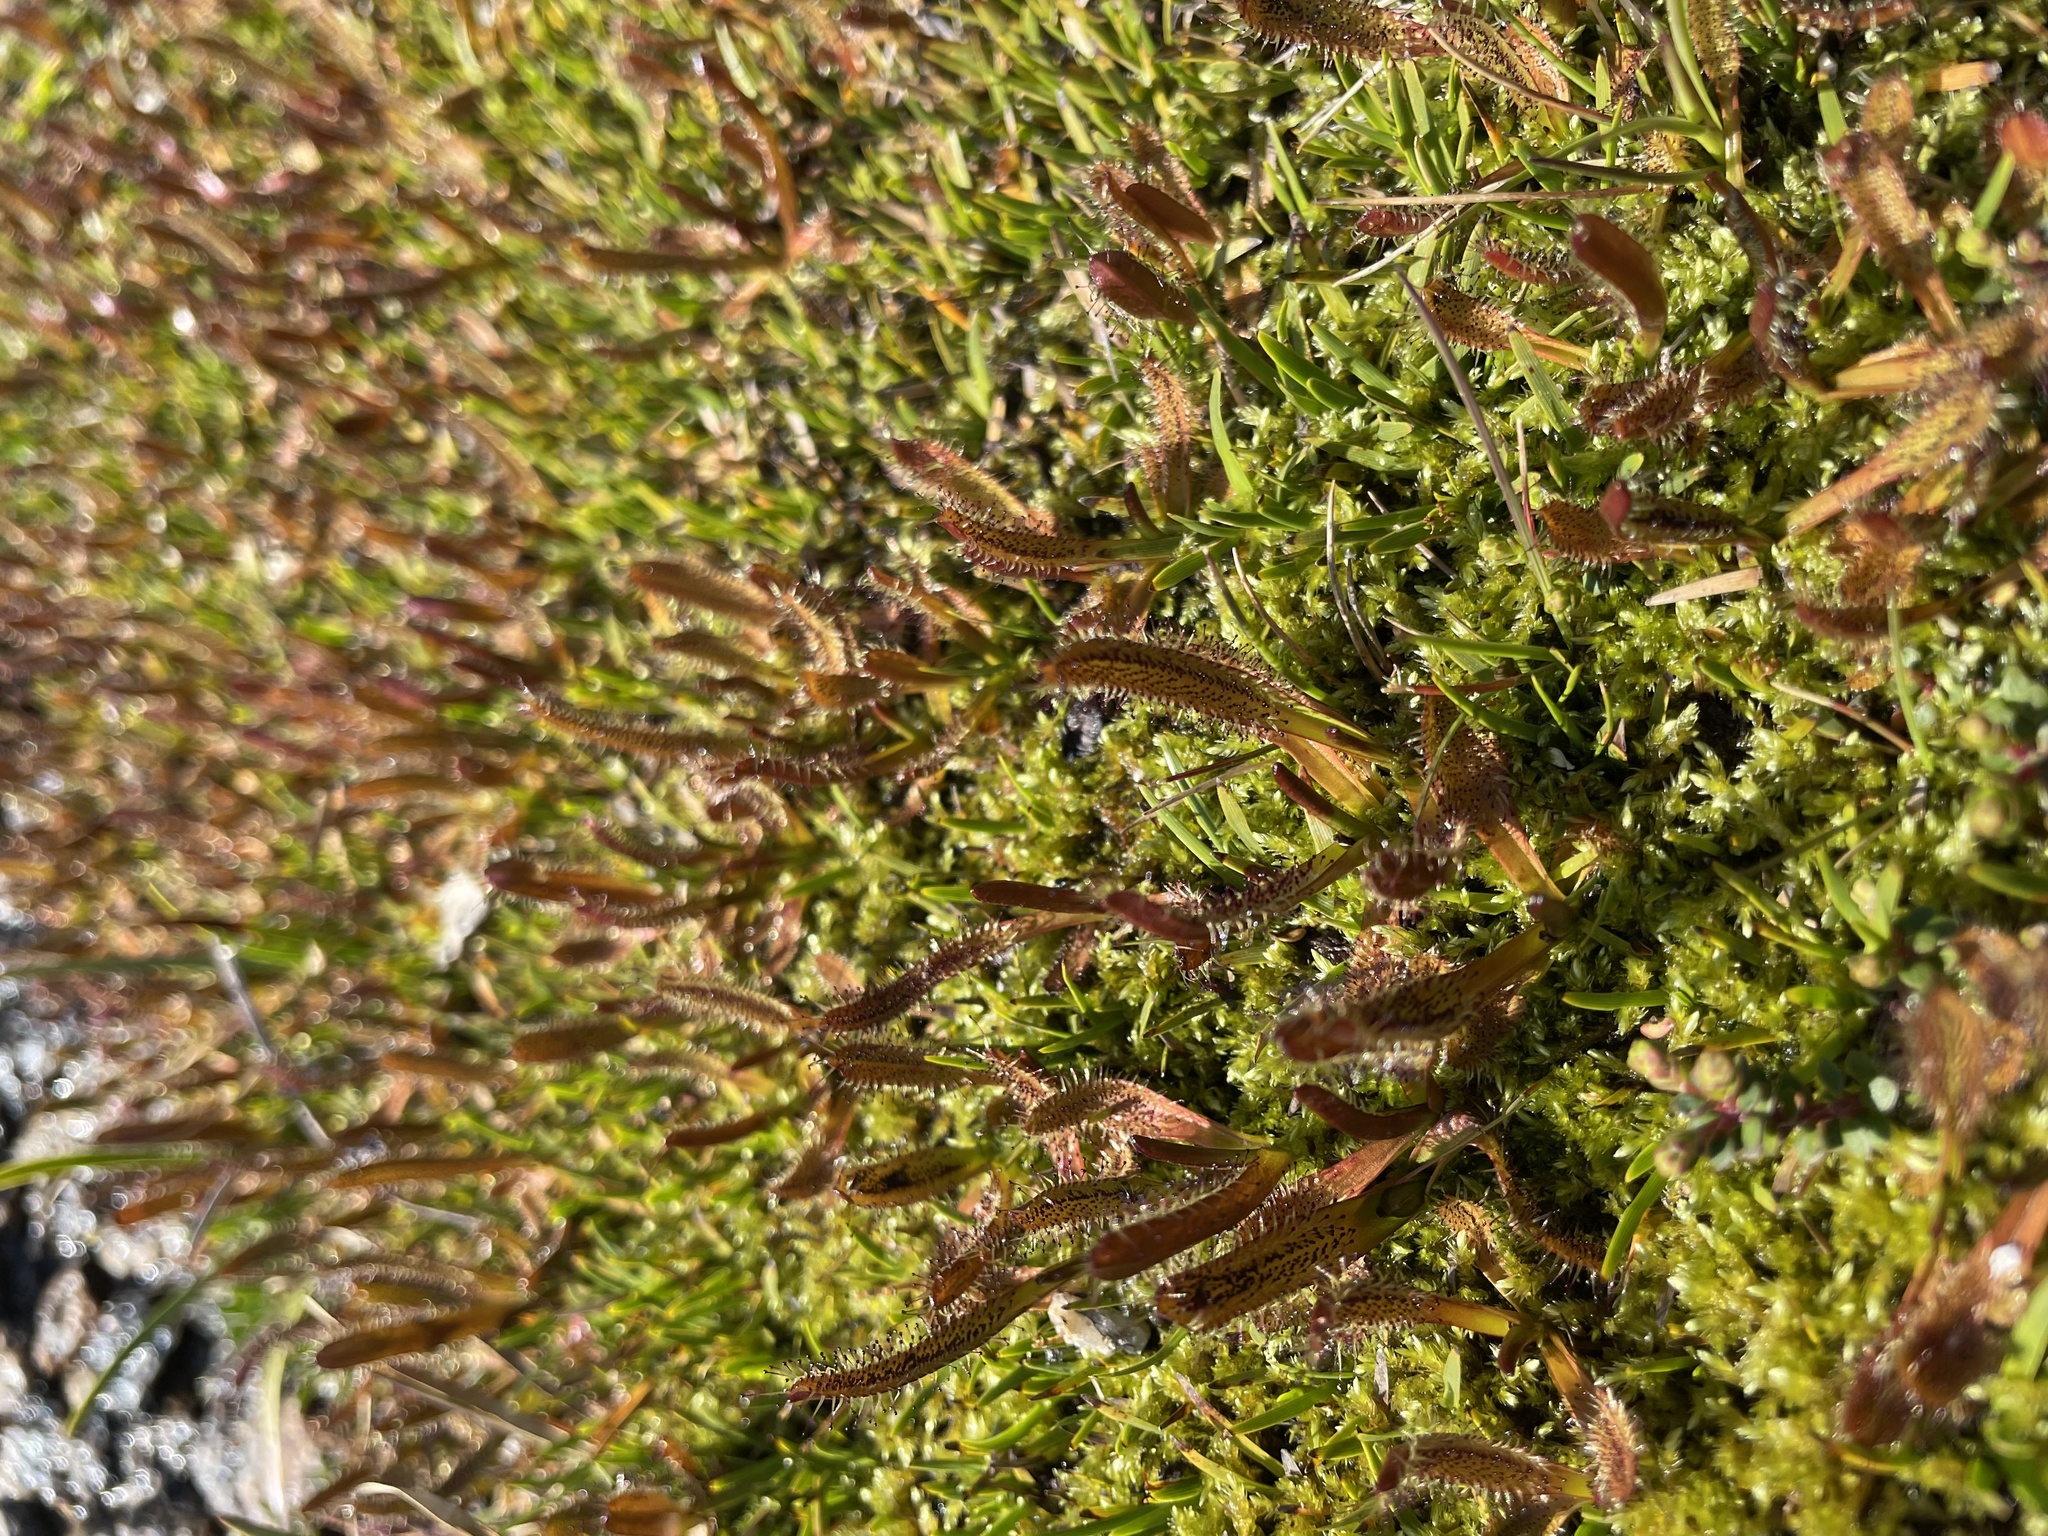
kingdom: Plantae
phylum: Tracheophyta
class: Magnoliopsida
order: Caryophyllales
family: Droseraceae
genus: Drosera
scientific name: Drosera arcturi
